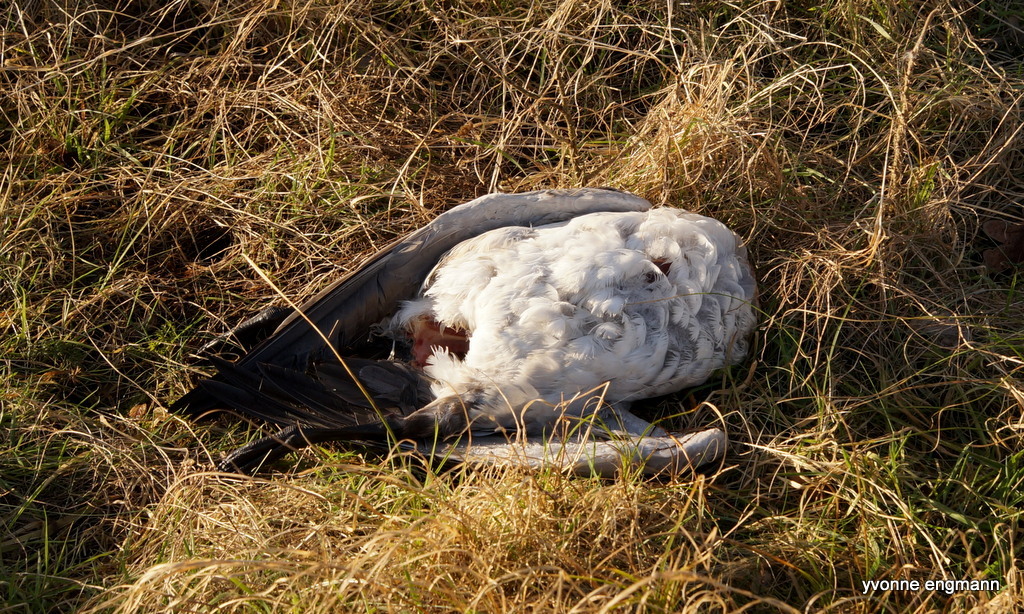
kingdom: Animalia
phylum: Chordata
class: Aves
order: Anseriformes
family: Anatidae
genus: Branta
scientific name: Branta leucopsis
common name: Barnacle goose
